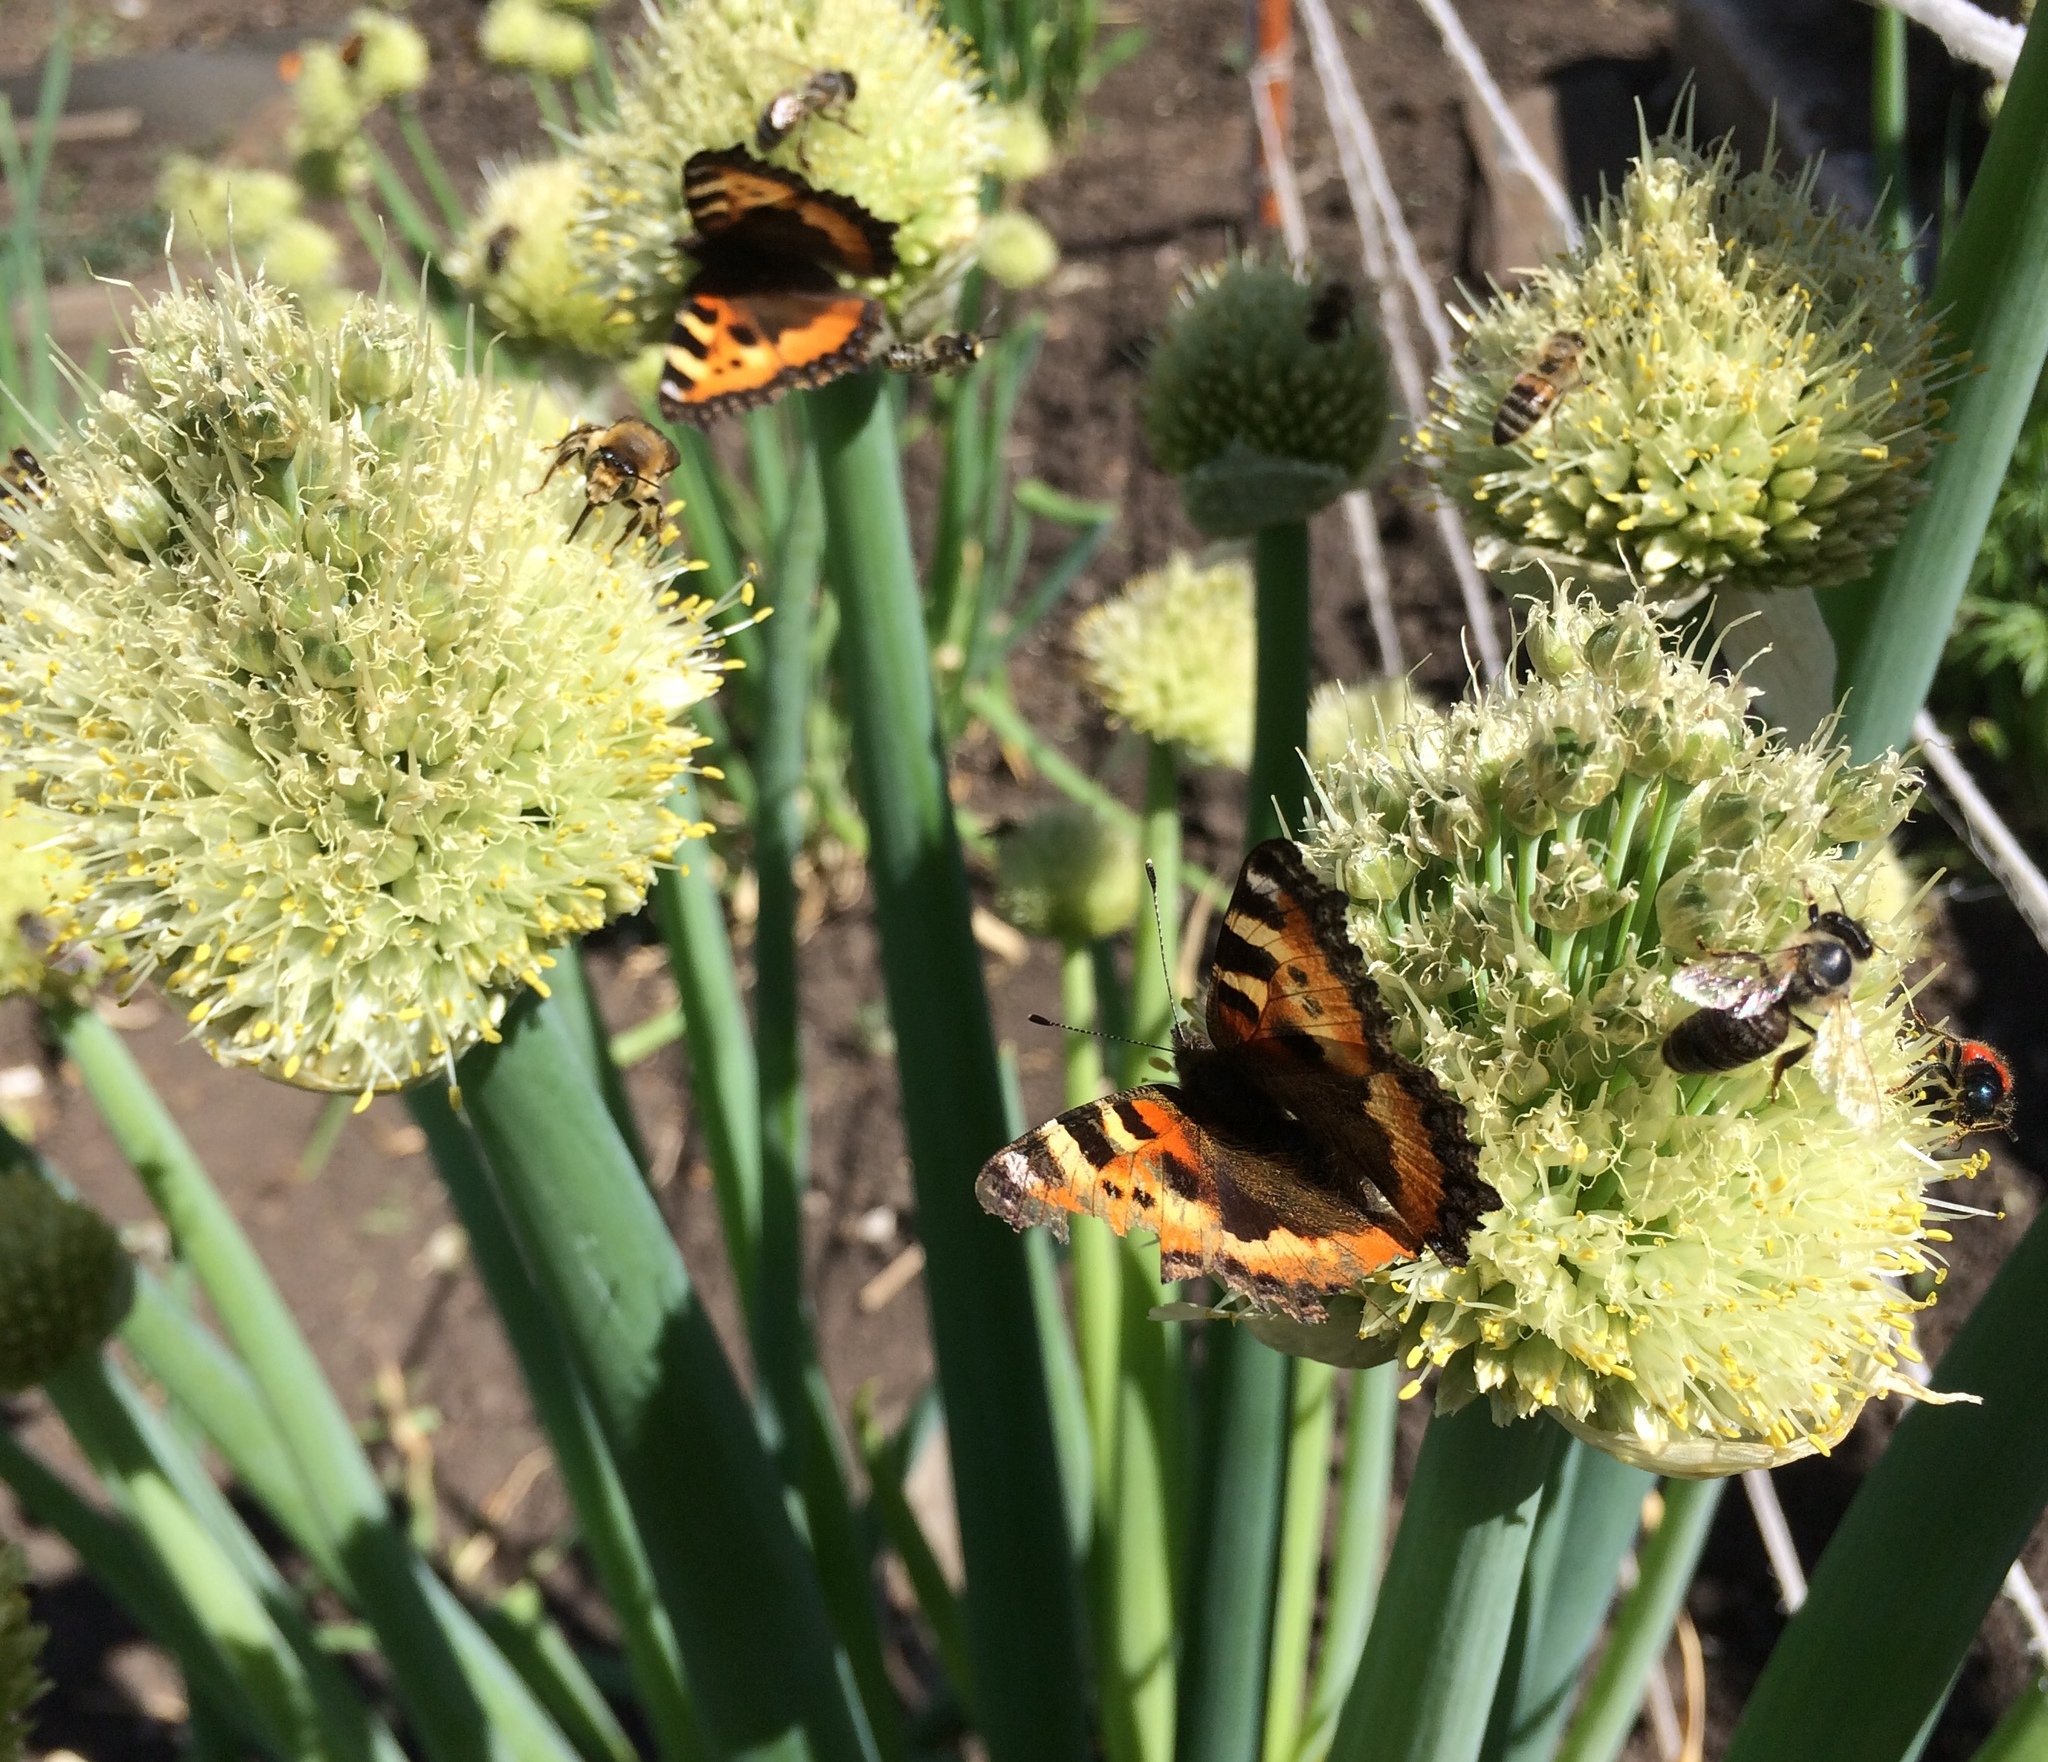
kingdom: Animalia
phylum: Arthropoda
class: Insecta
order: Lepidoptera
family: Nymphalidae
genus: Aglais
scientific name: Aglais urticae
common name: Small tortoiseshell
